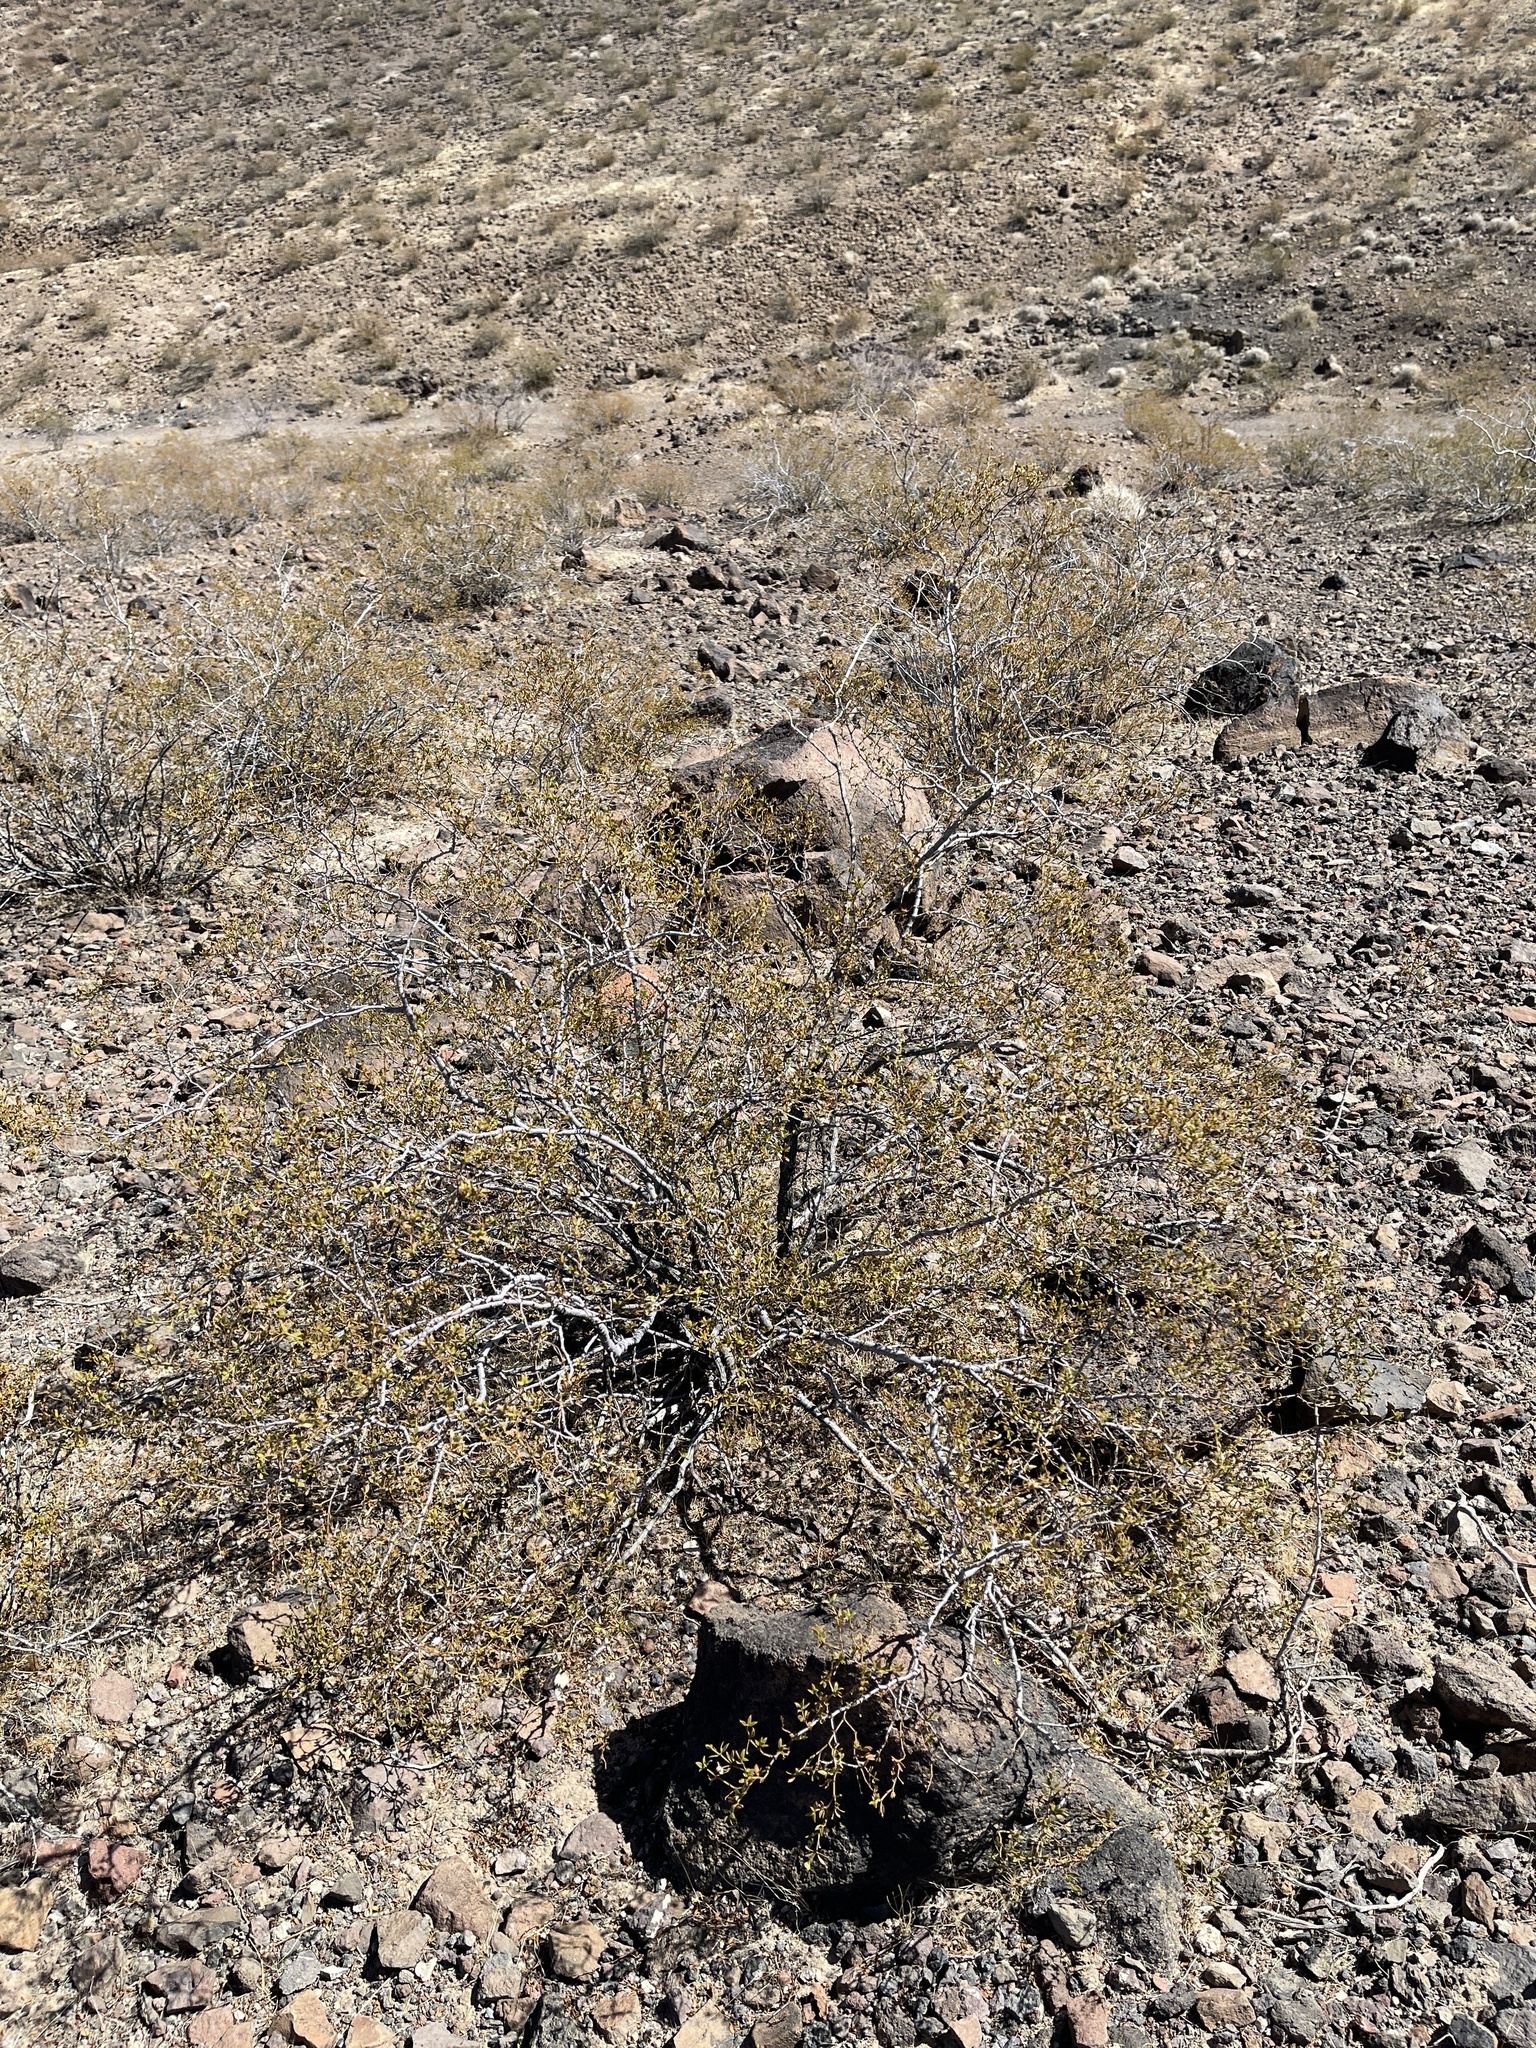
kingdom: Plantae
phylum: Tracheophyta
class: Magnoliopsida
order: Zygophyllales
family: Zygophyllaceae
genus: Larrea
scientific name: Larrea tridentata
